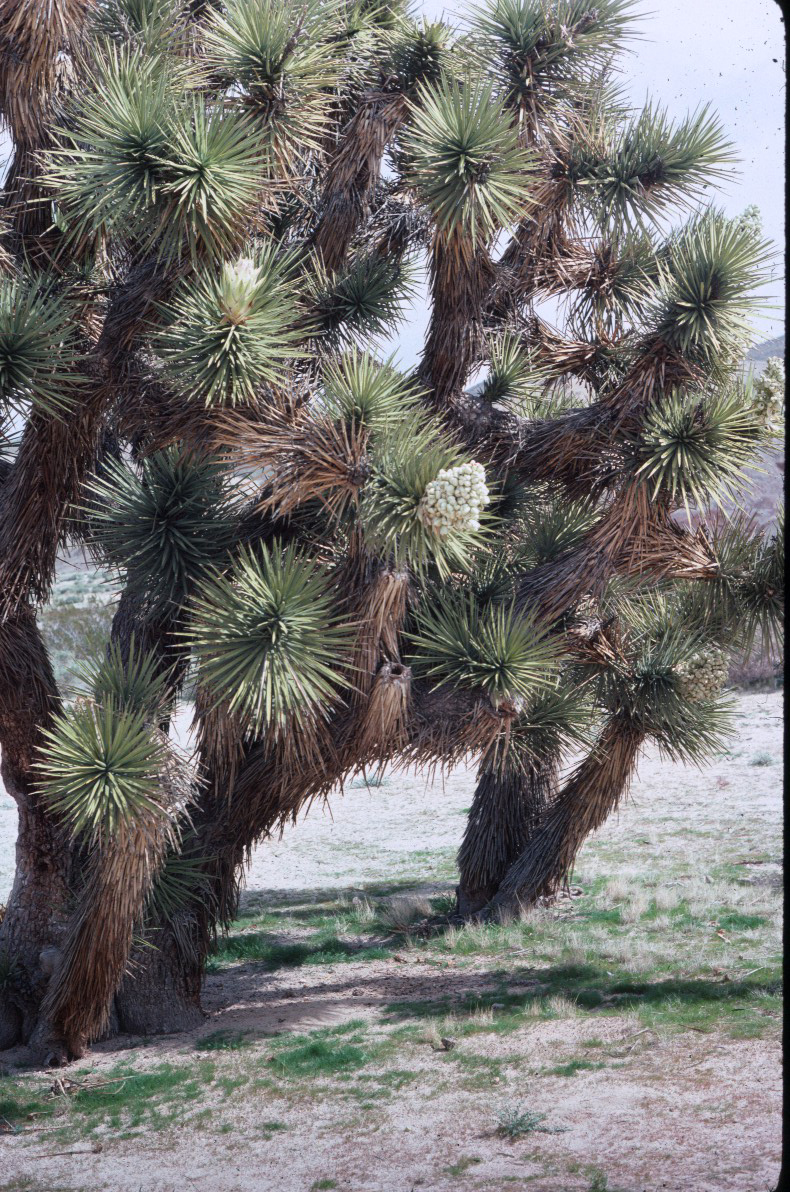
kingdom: Plantae
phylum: Tracheophyta
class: Liliopsida
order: Asparagales
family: Asparagaceae
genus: Yucca
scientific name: Yucca brevifolia
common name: Joshua tree
